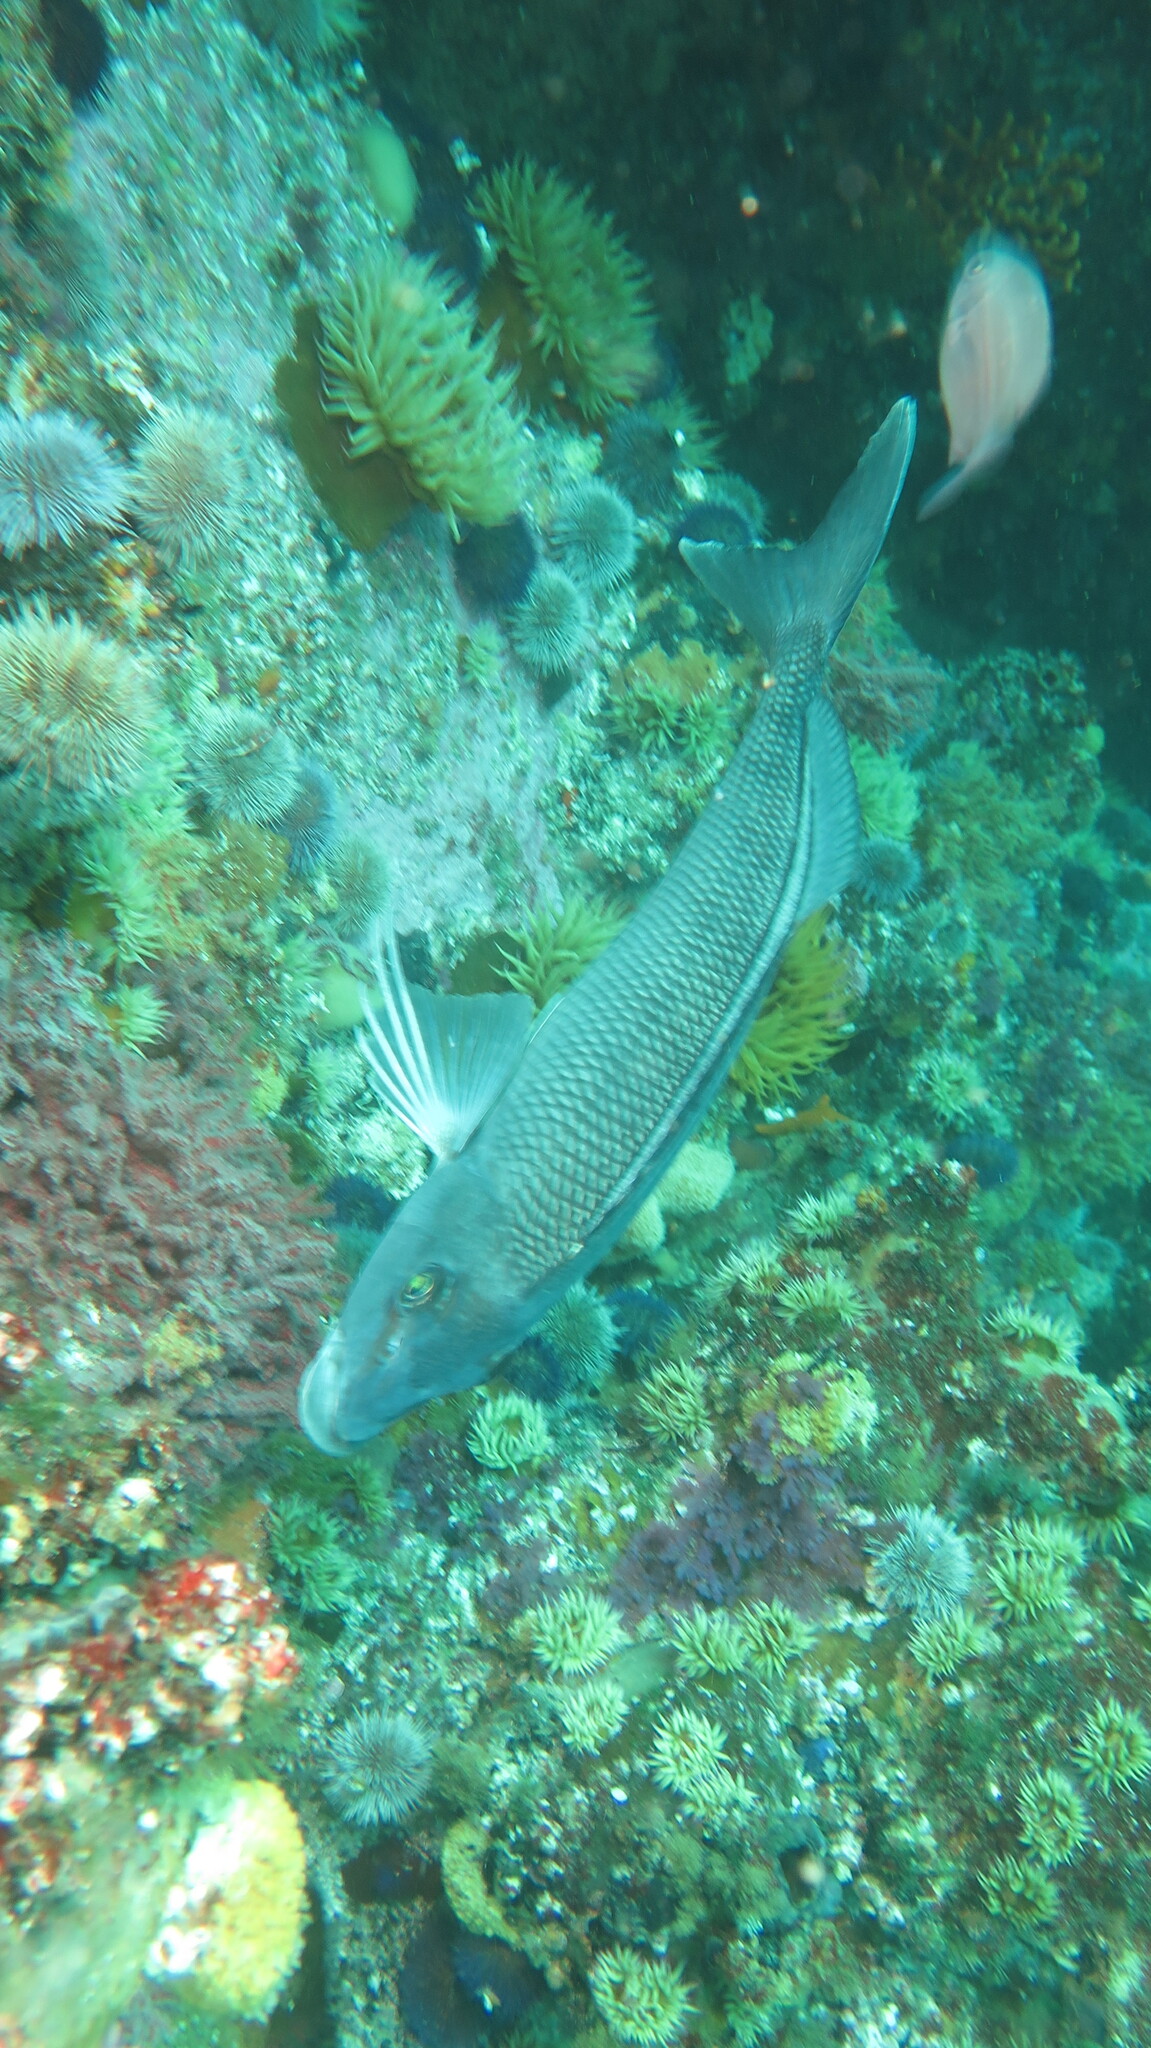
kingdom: Animalia
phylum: Chordata
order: Perciformes
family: Cheilodactylidae
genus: Chirodactylus
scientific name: Chirodactylus grandis
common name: Bank steenbras
